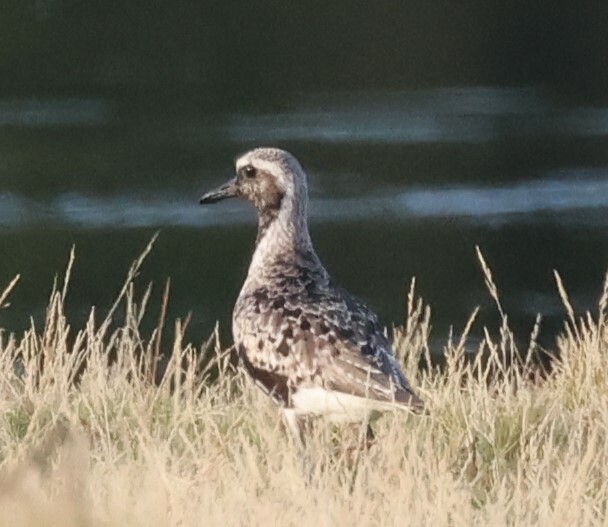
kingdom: Animalia
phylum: Chordata
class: Aves
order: Charadriiformes
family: Charadriidae
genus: Pluvialis
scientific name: Pluvialis squatarola
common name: Grey plover
